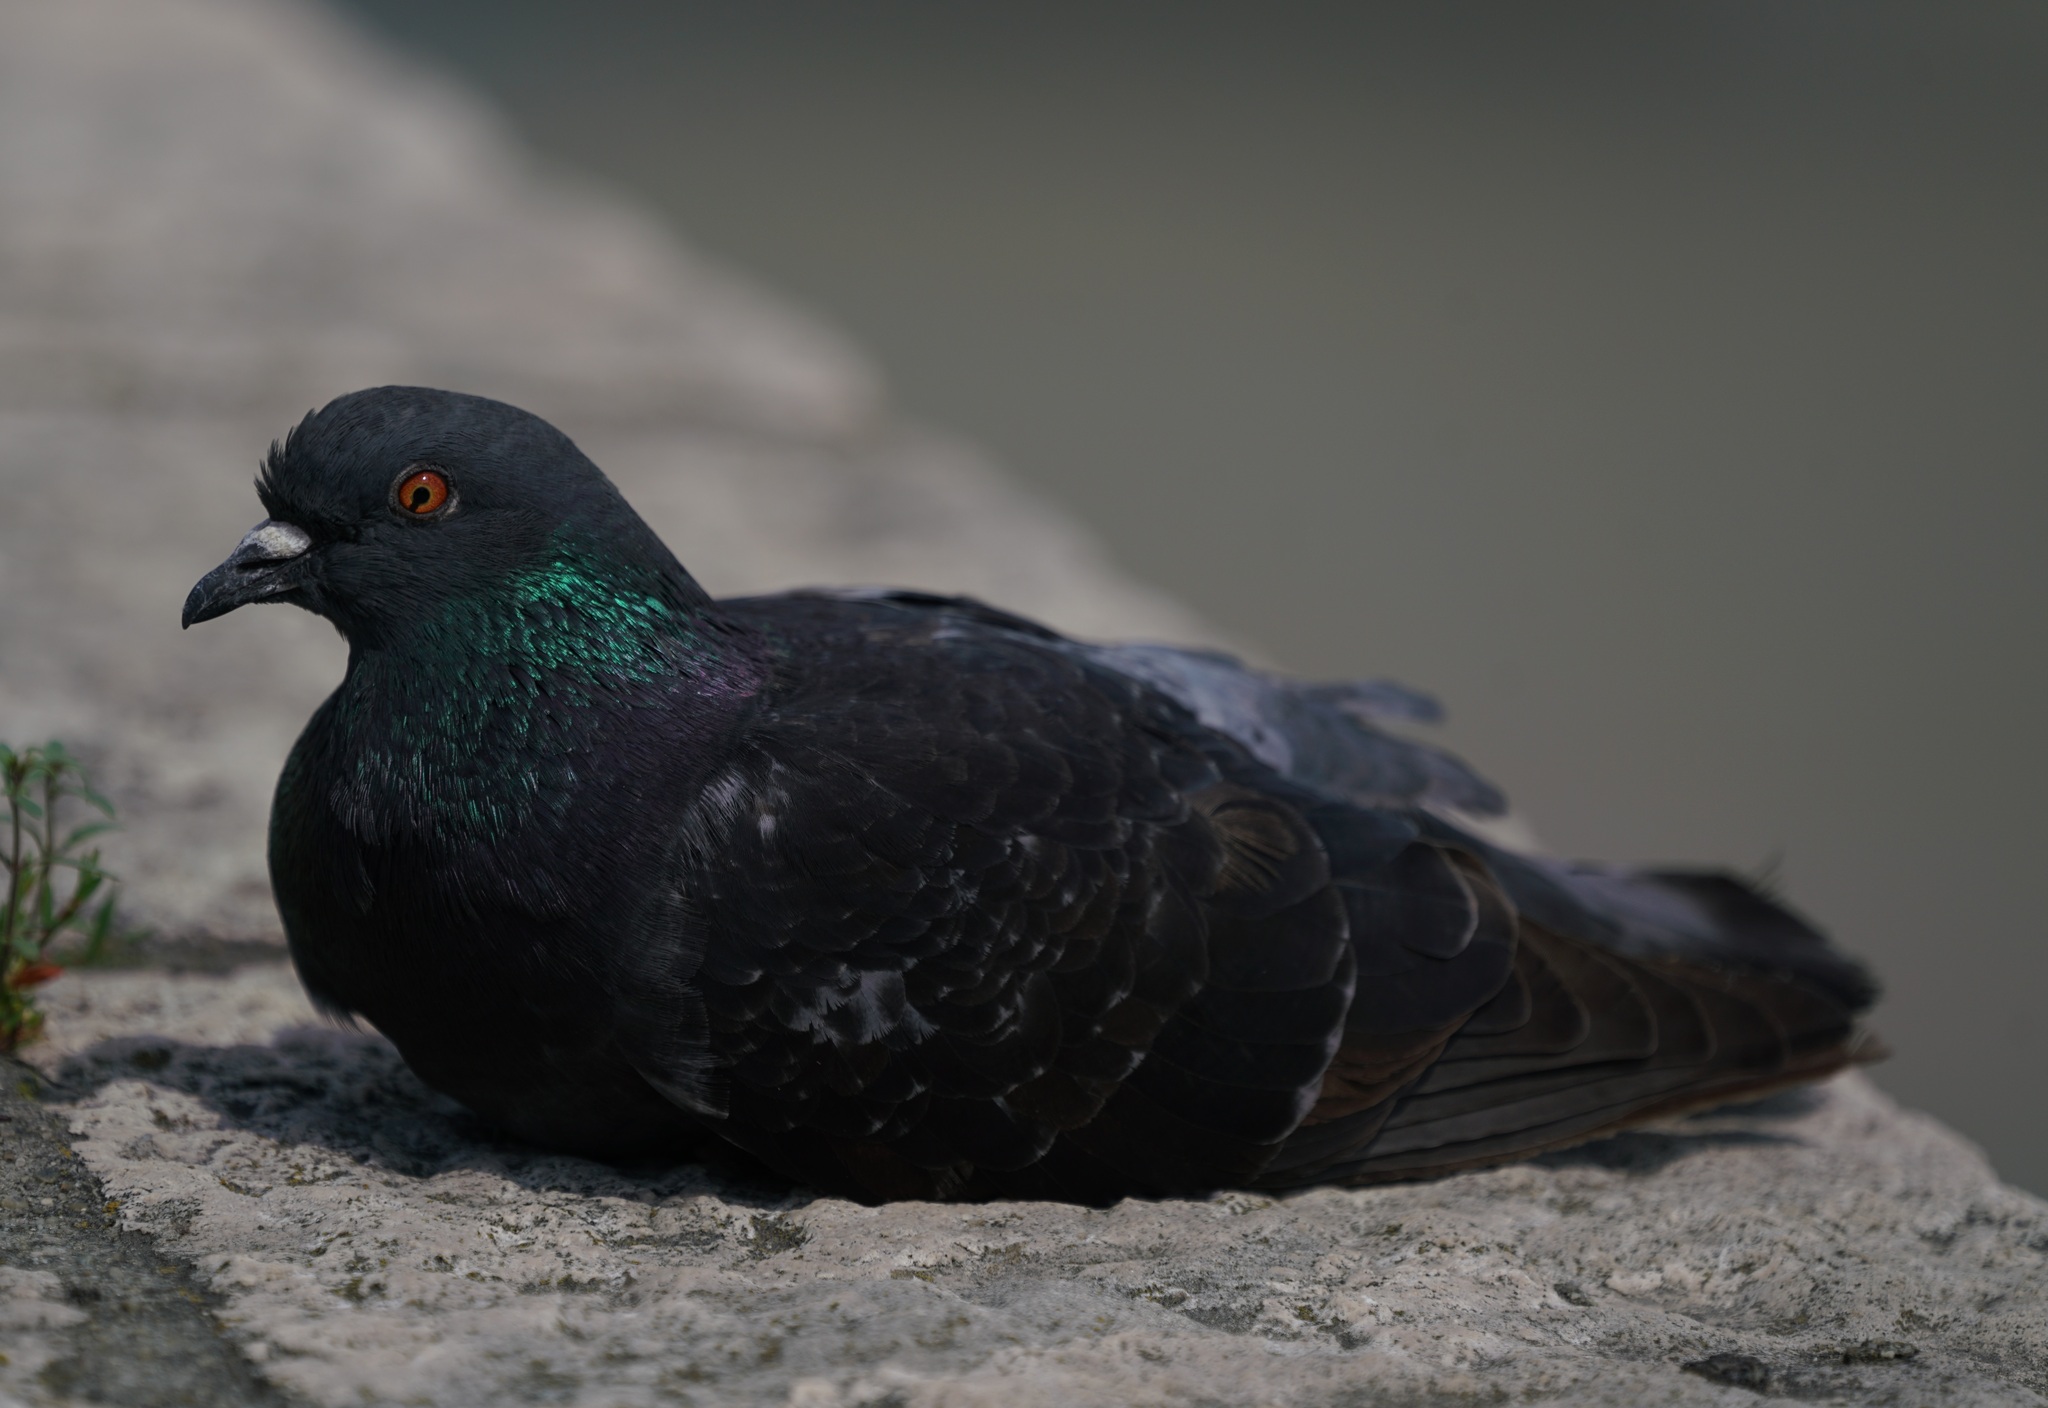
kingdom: Animalia
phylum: Chordata
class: Aves
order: Columbiformes
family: Columbidae
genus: Columba
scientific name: Columba livia
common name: Rock pigeon
